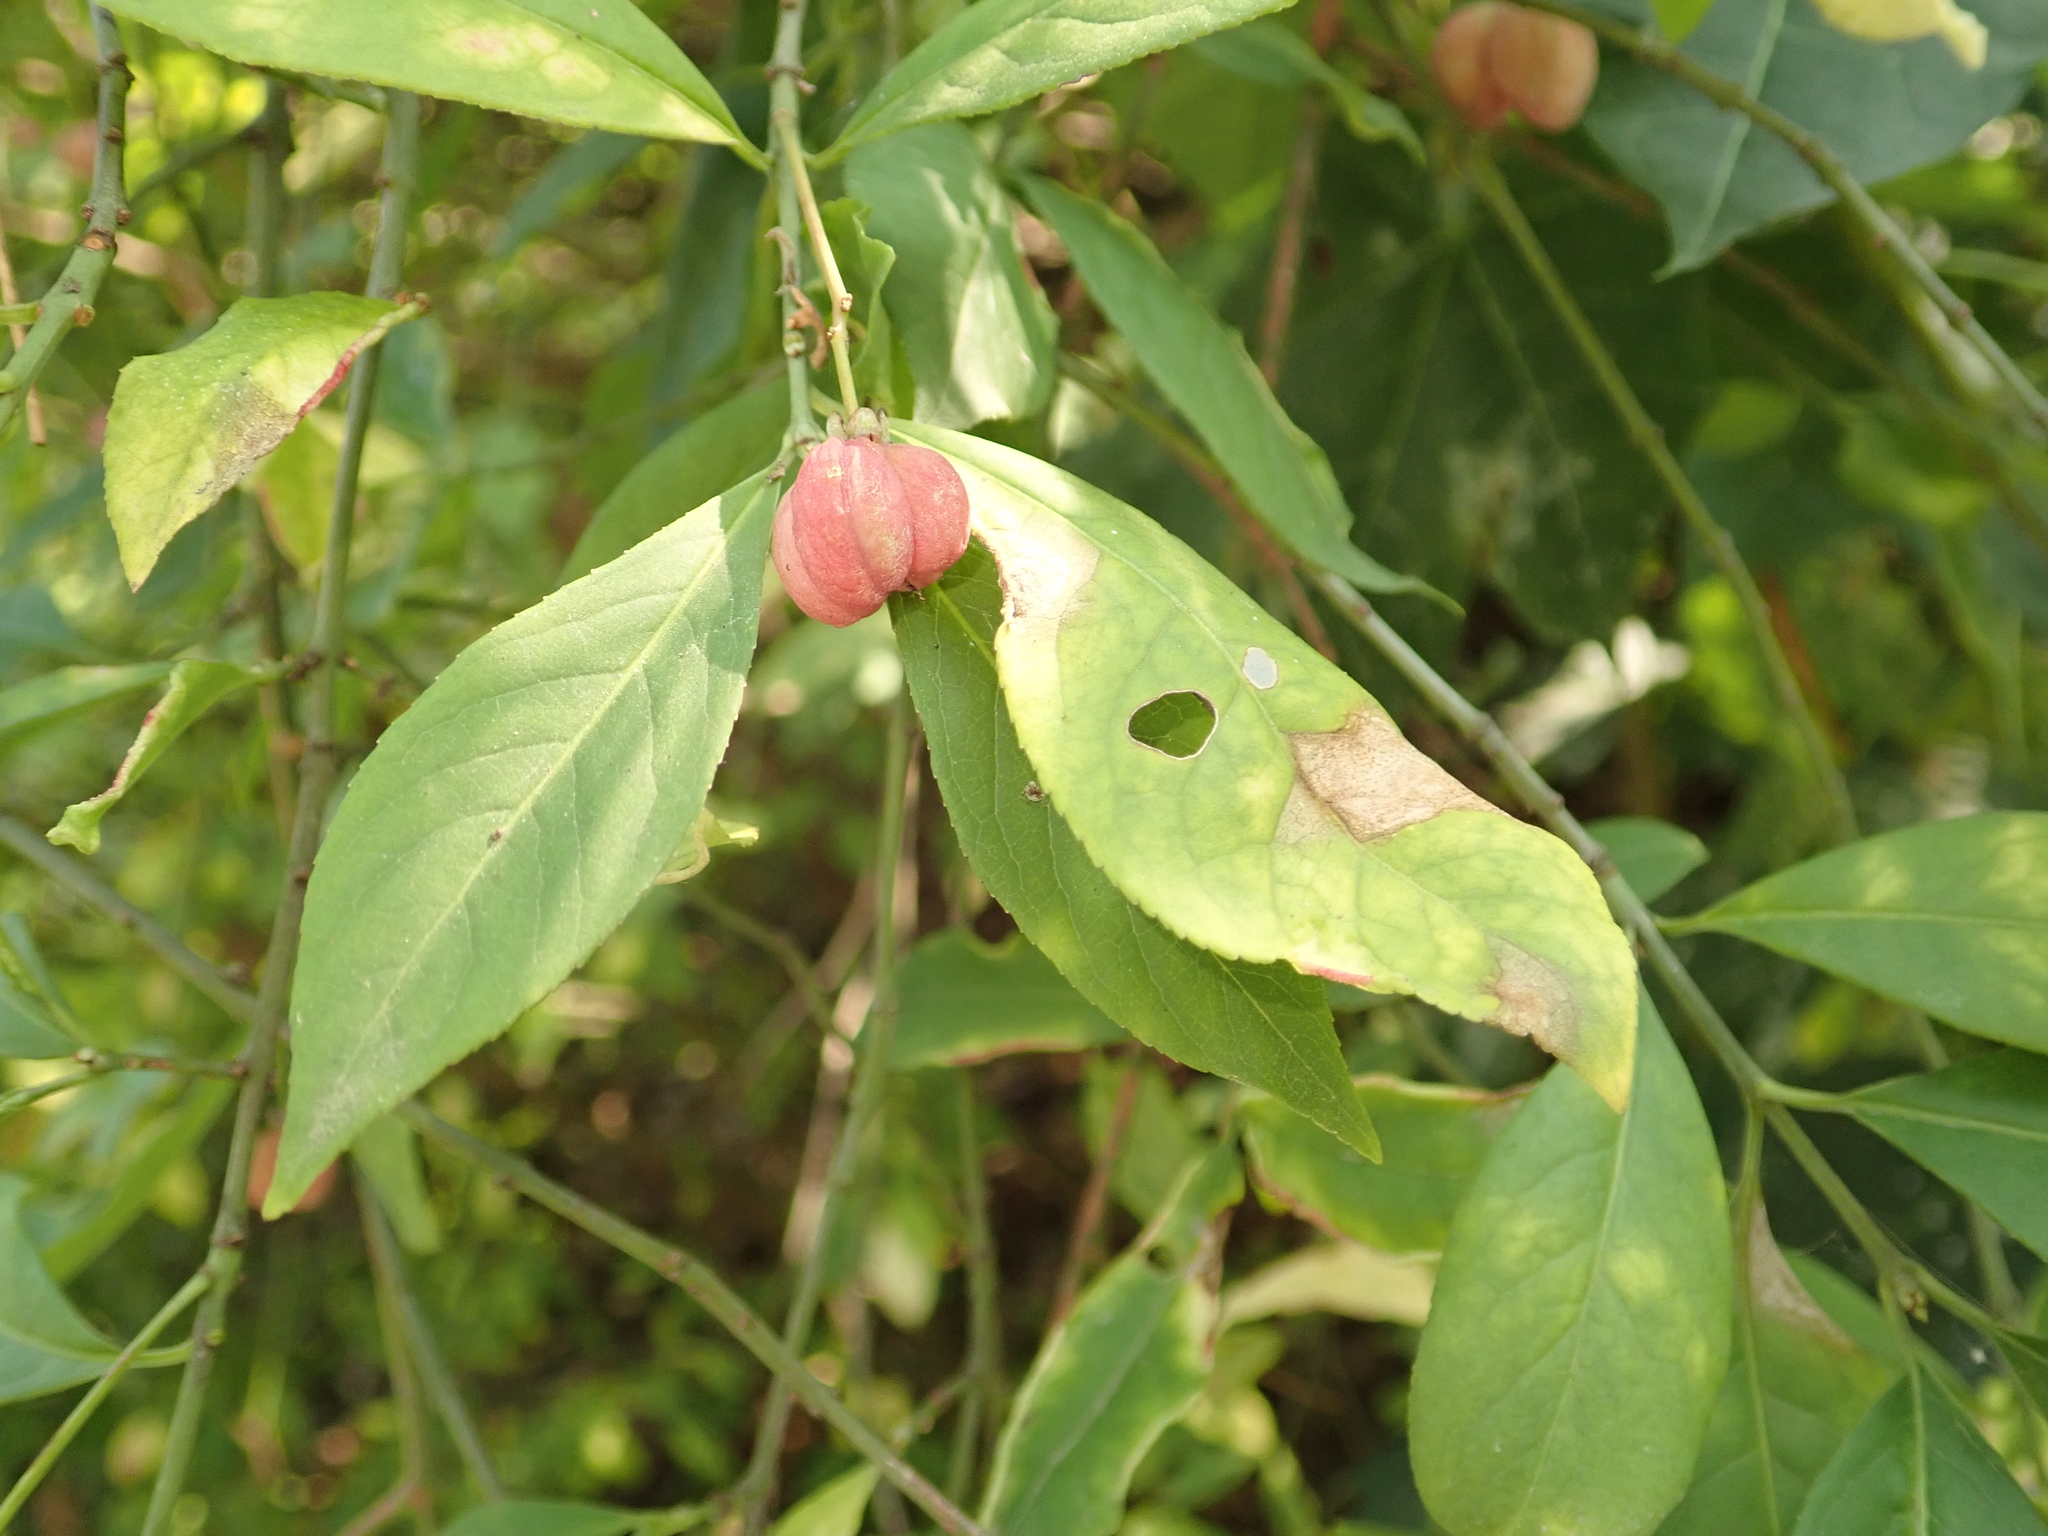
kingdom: Plantae
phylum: Tracheophyta
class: Magnoliopsida
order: Celastrales
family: Celastraceae
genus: Euonymus
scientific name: Euonymus europaeus
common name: Spindle
